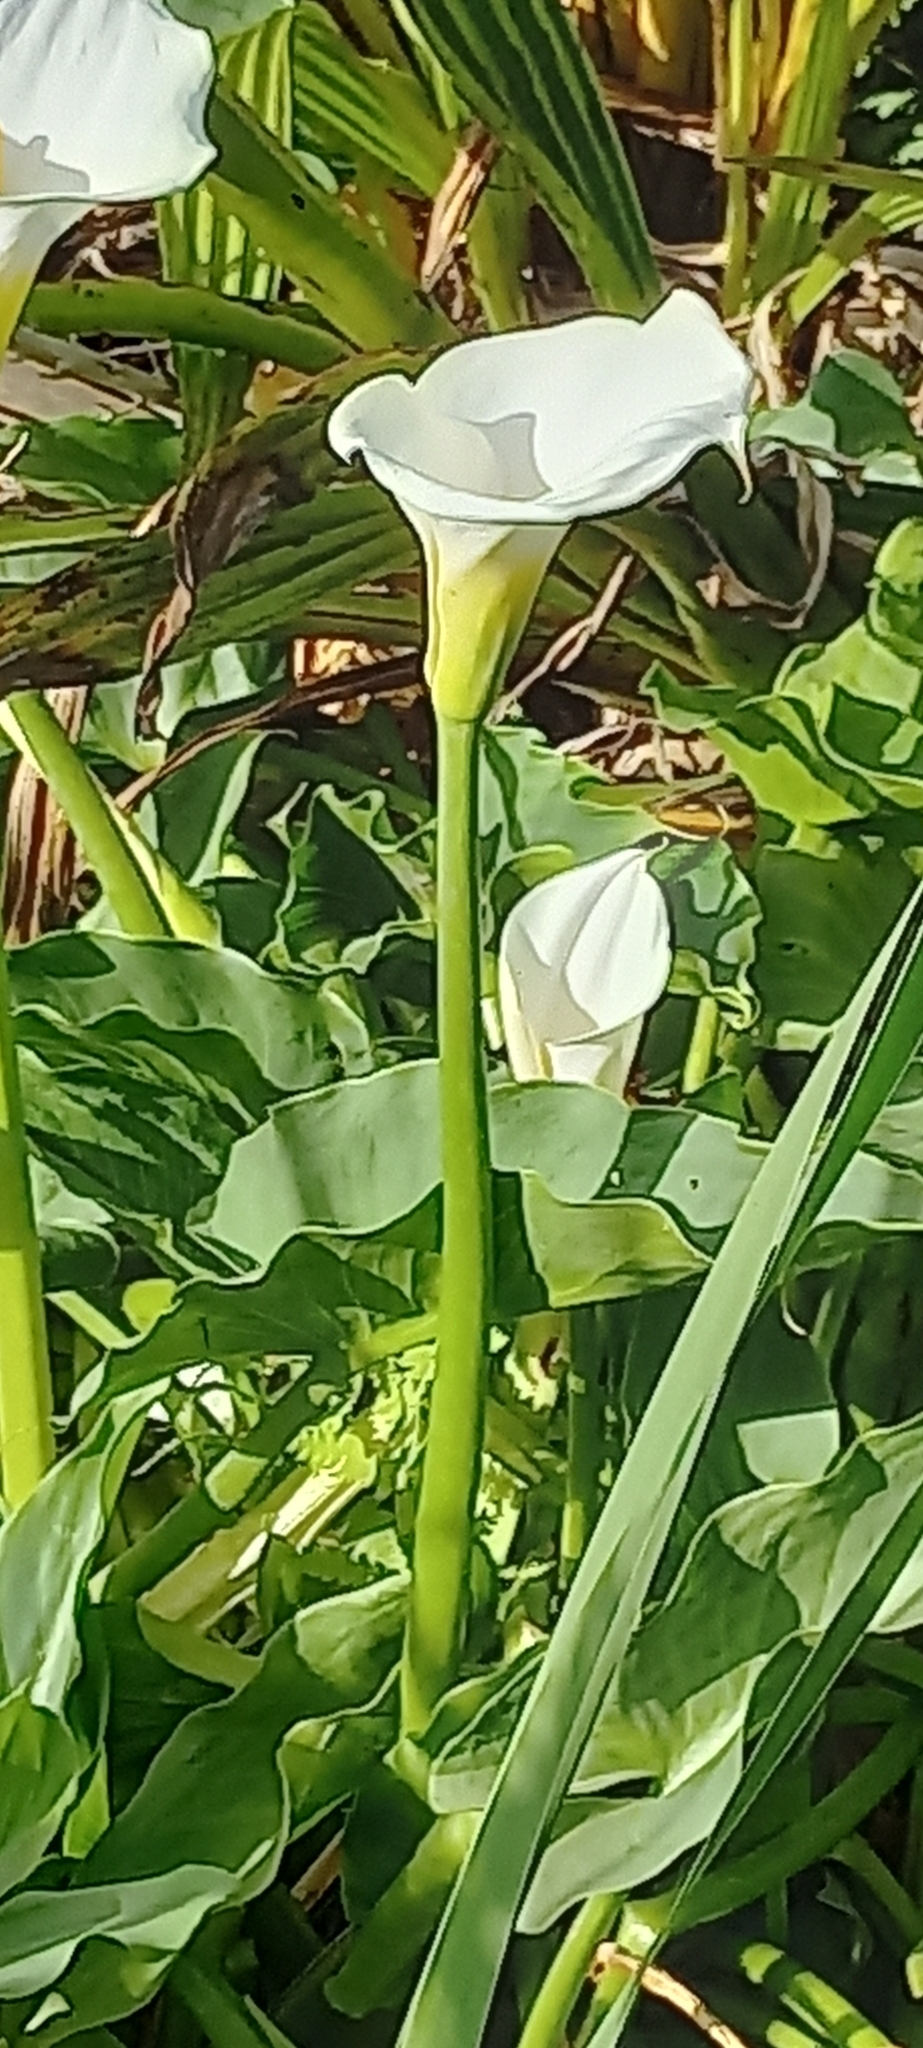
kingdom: Plantae
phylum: Tracheophyta
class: Liliopsida
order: Alismatales
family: Araceae
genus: Zantedeschia
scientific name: Zantedeschia aethiopica
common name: Altar-lily
